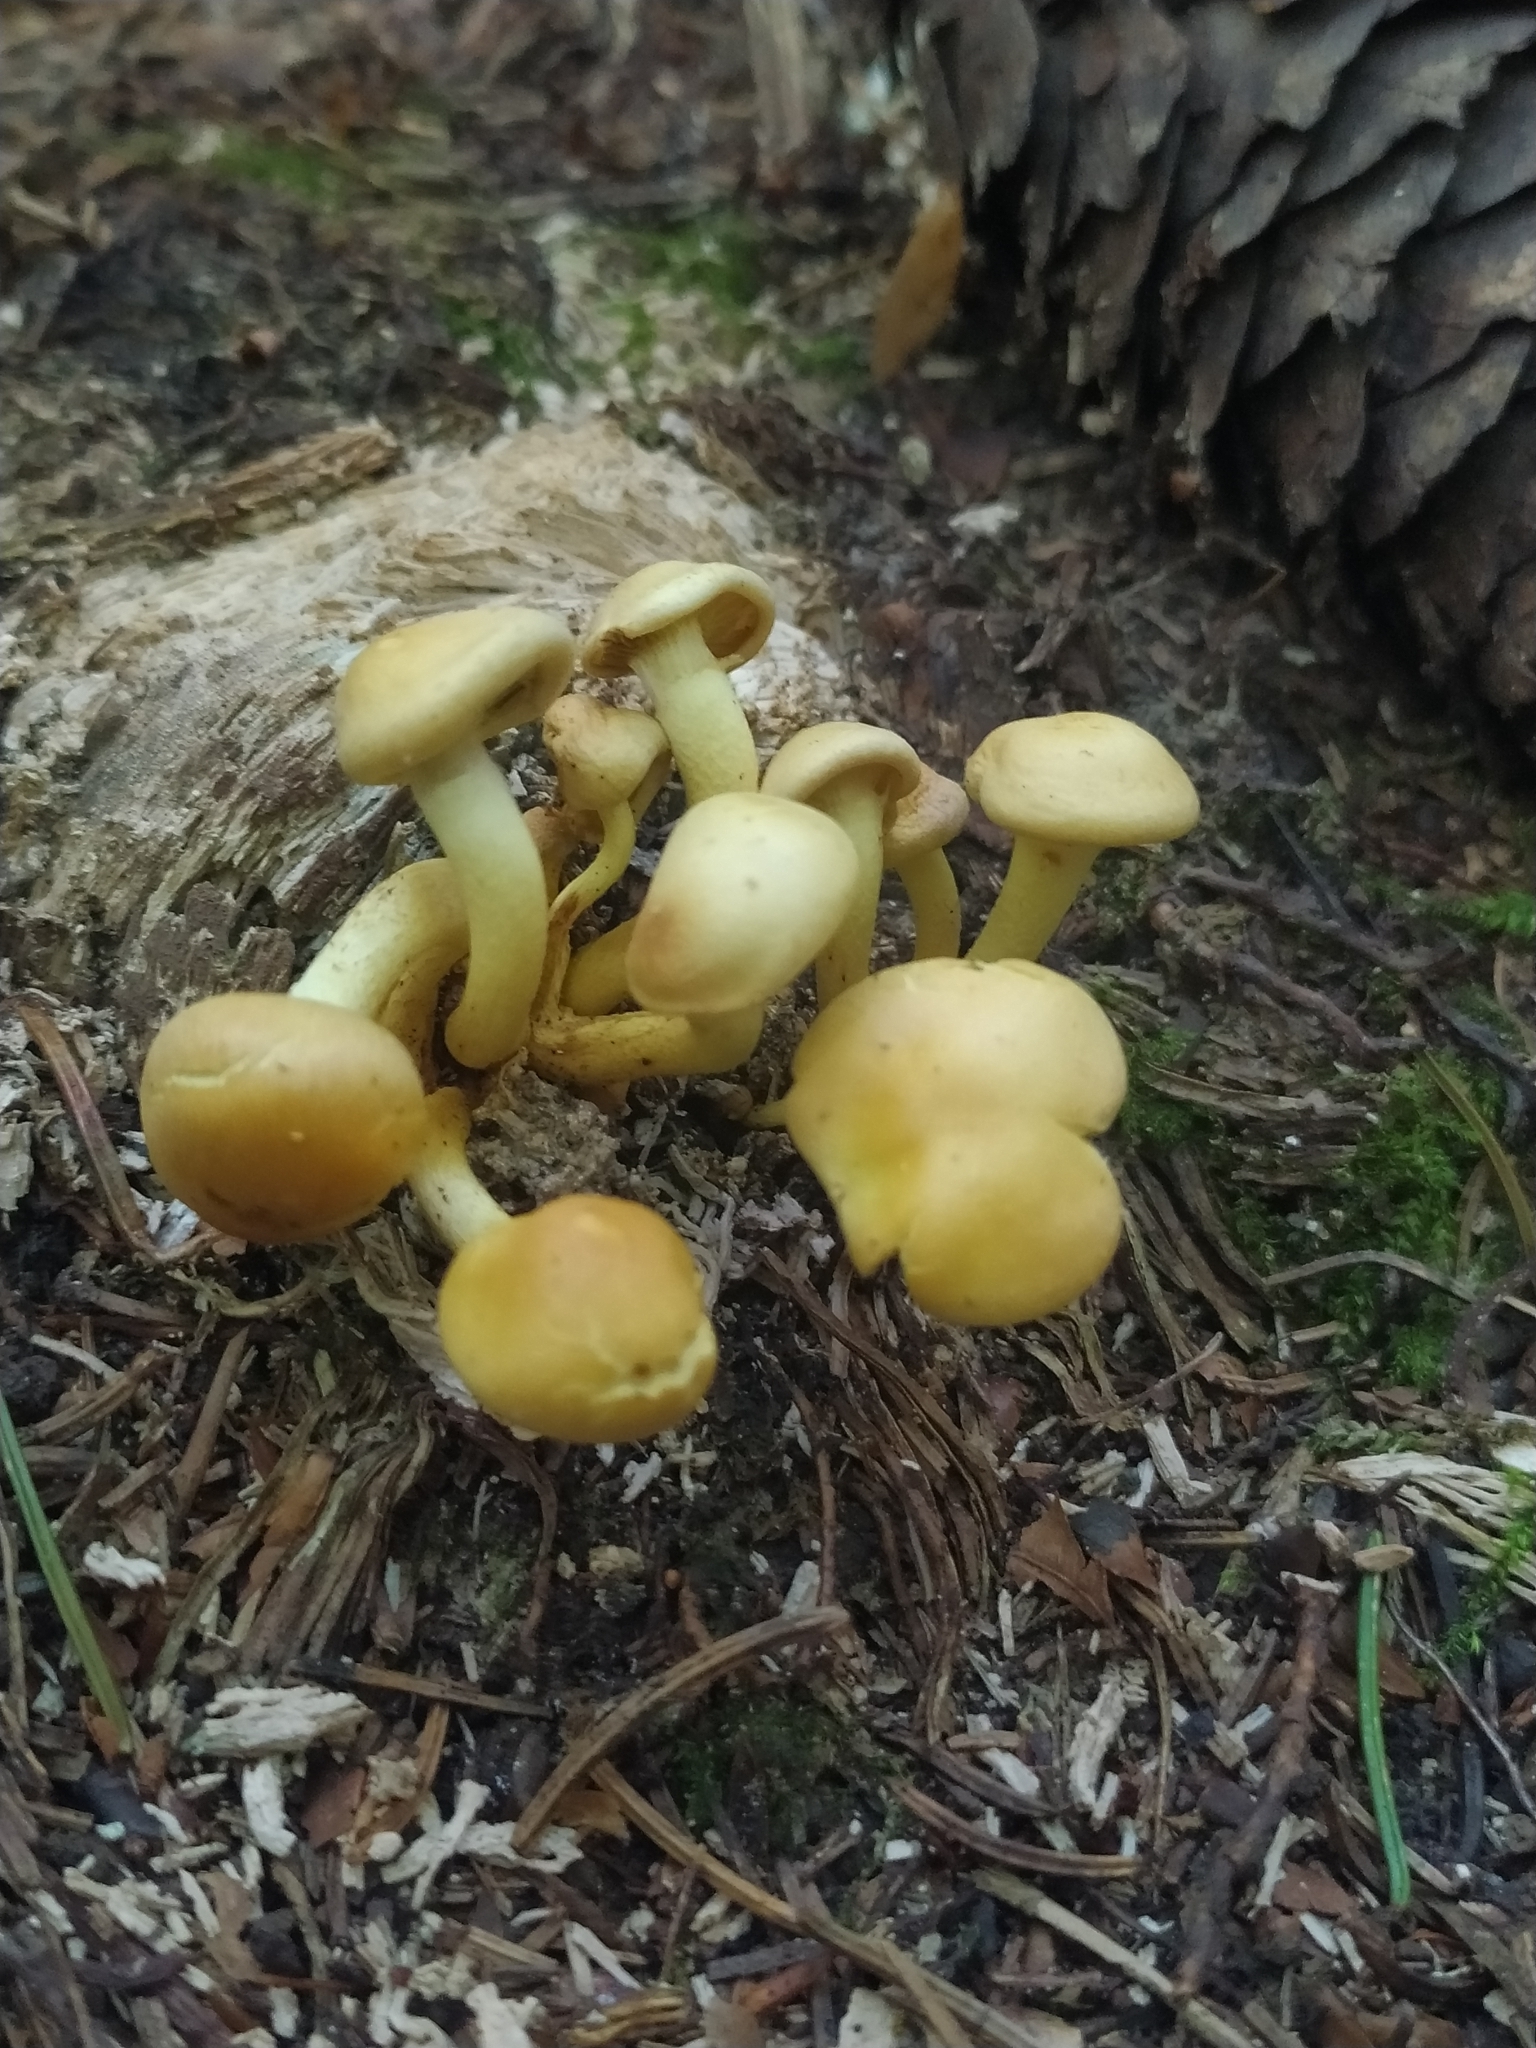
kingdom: Fungi
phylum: Basidiomycota
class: Agaricomycetes
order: Agaricales
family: Strophariaceae
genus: Hypholoma
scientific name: Hypholoma fasciculare
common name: Sulphur tuft
